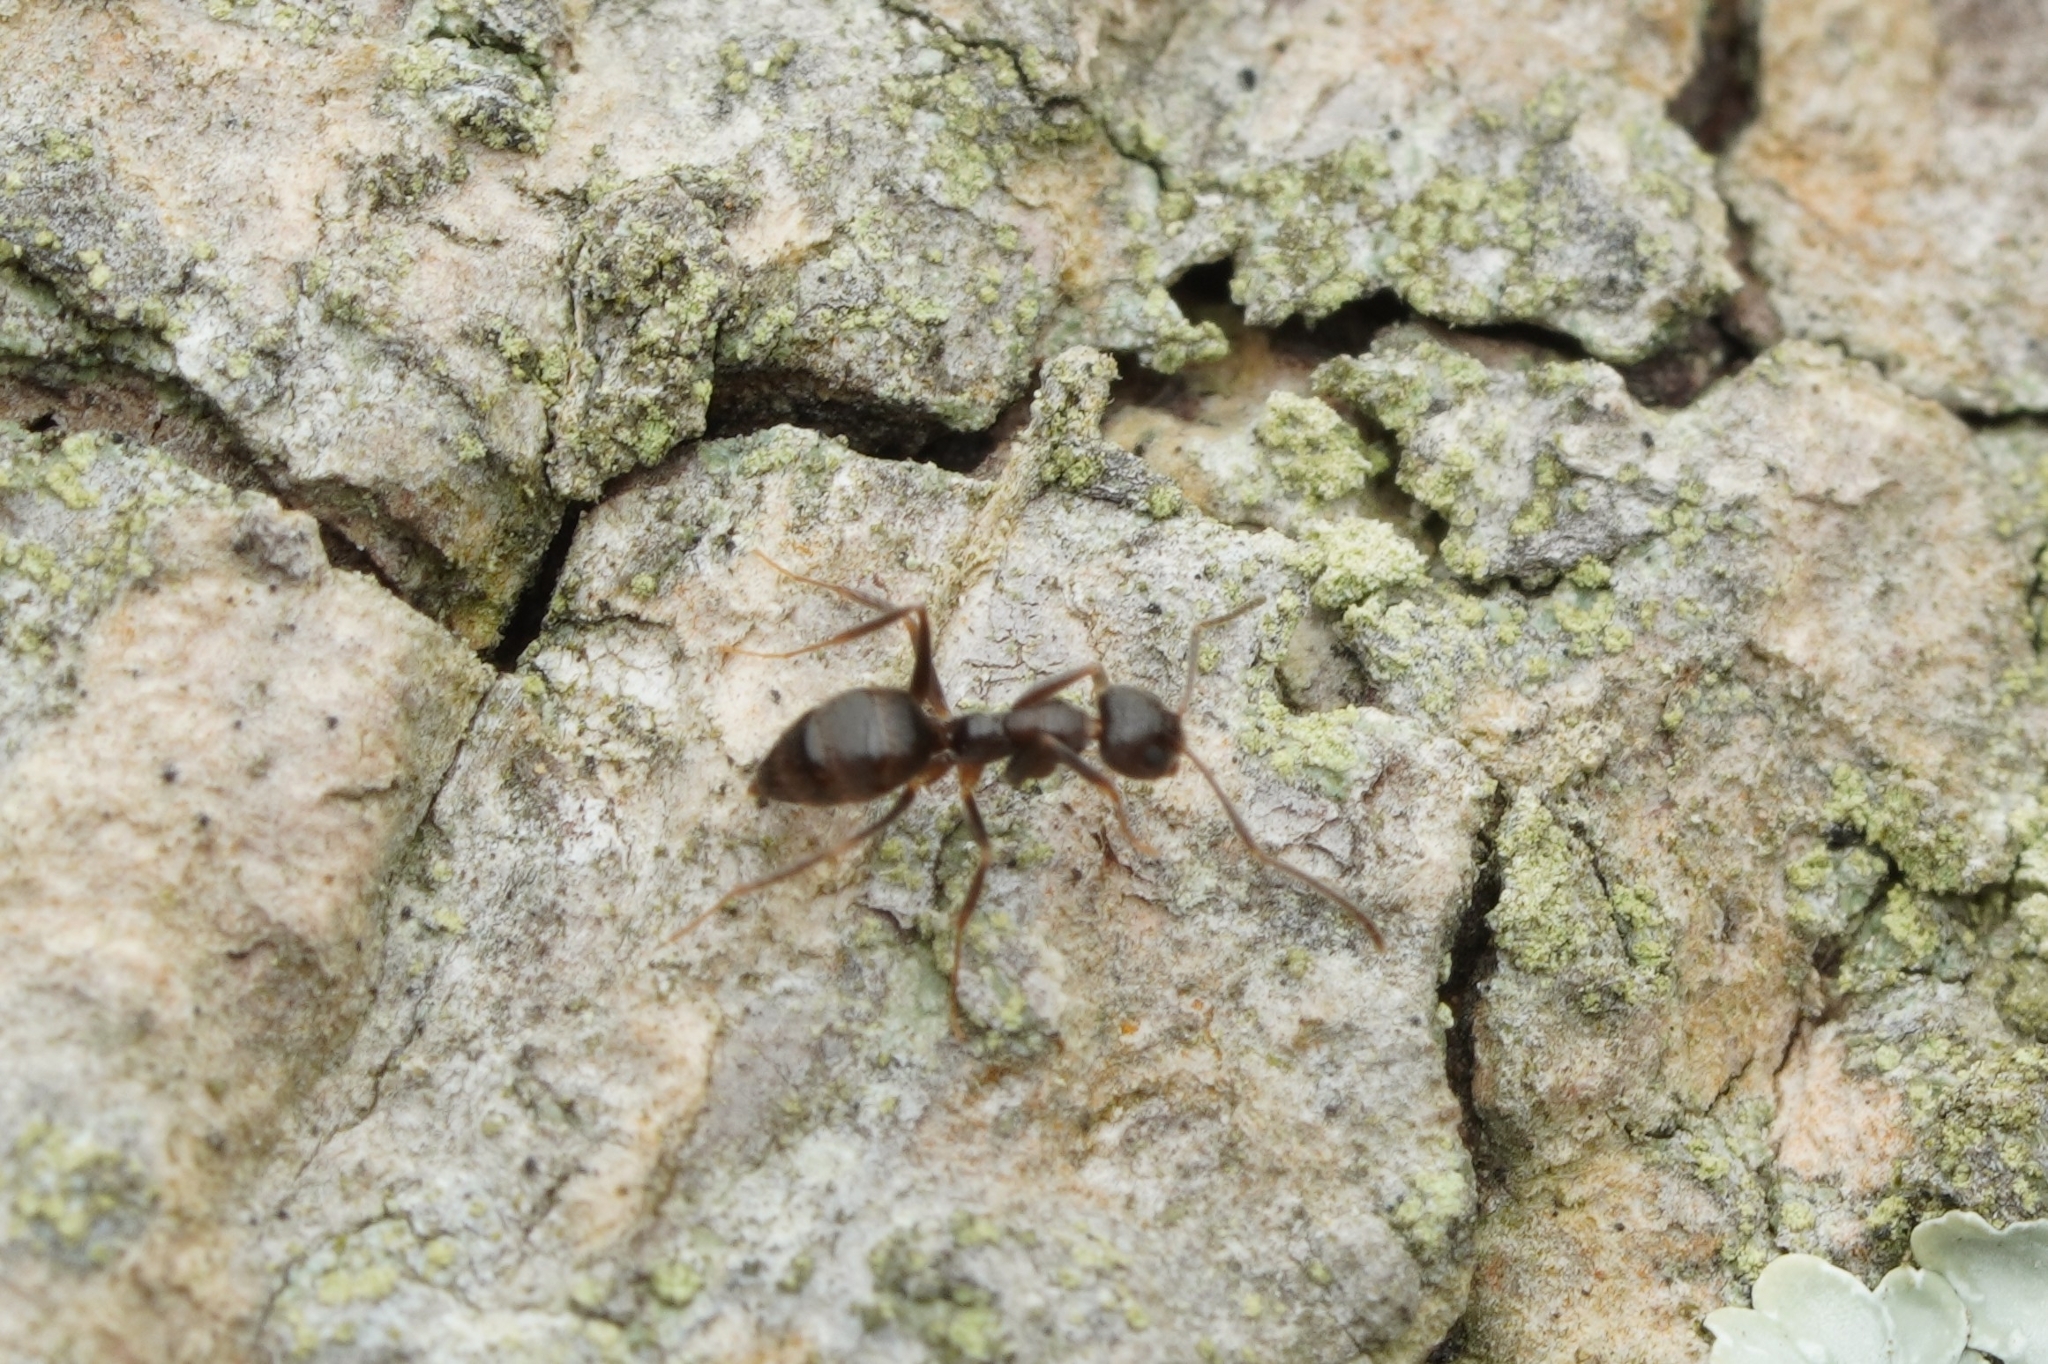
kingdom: Animalia
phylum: Arthropoda
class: Insecta
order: Hymenoptera
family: Formicidae
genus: Paratrechina
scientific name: Paratrechina bourbonica
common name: Ant
